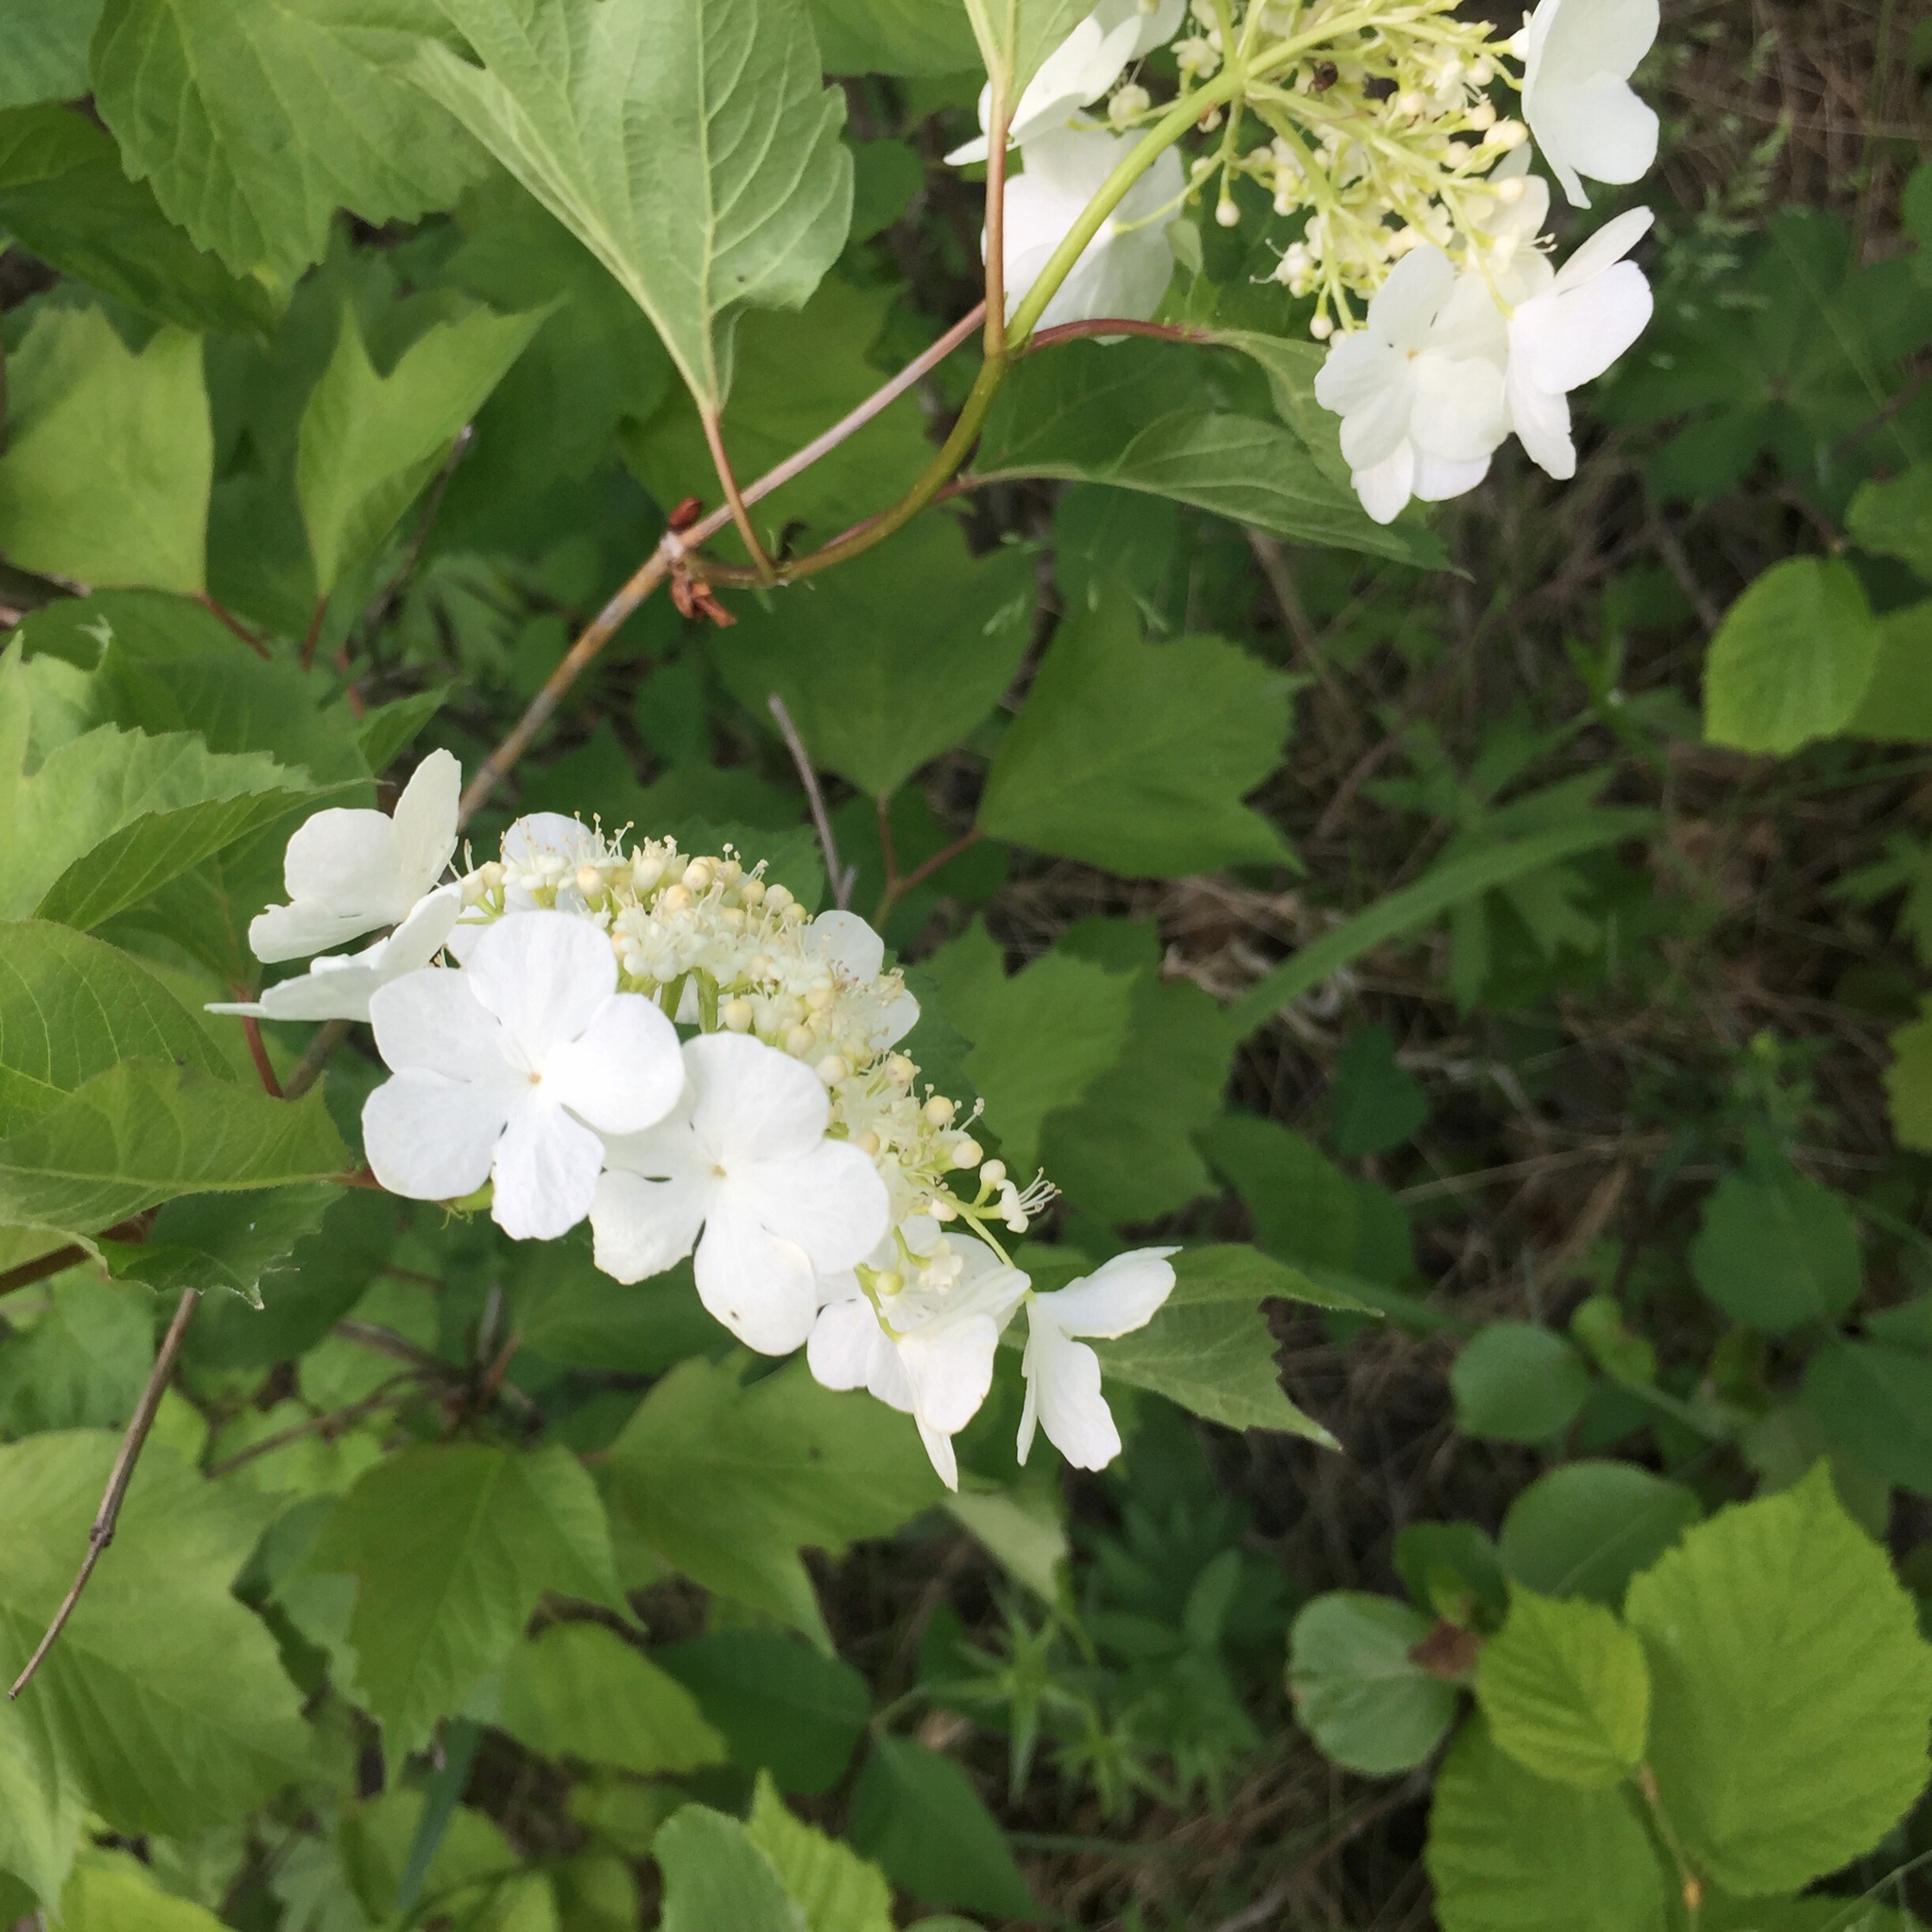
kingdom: Plantae
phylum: Tracheophyta
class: Magnoliopsida
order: Dipsacales
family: Viburnaceae
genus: Viburnum
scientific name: Viburnum trilobum
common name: American cranberrybush
